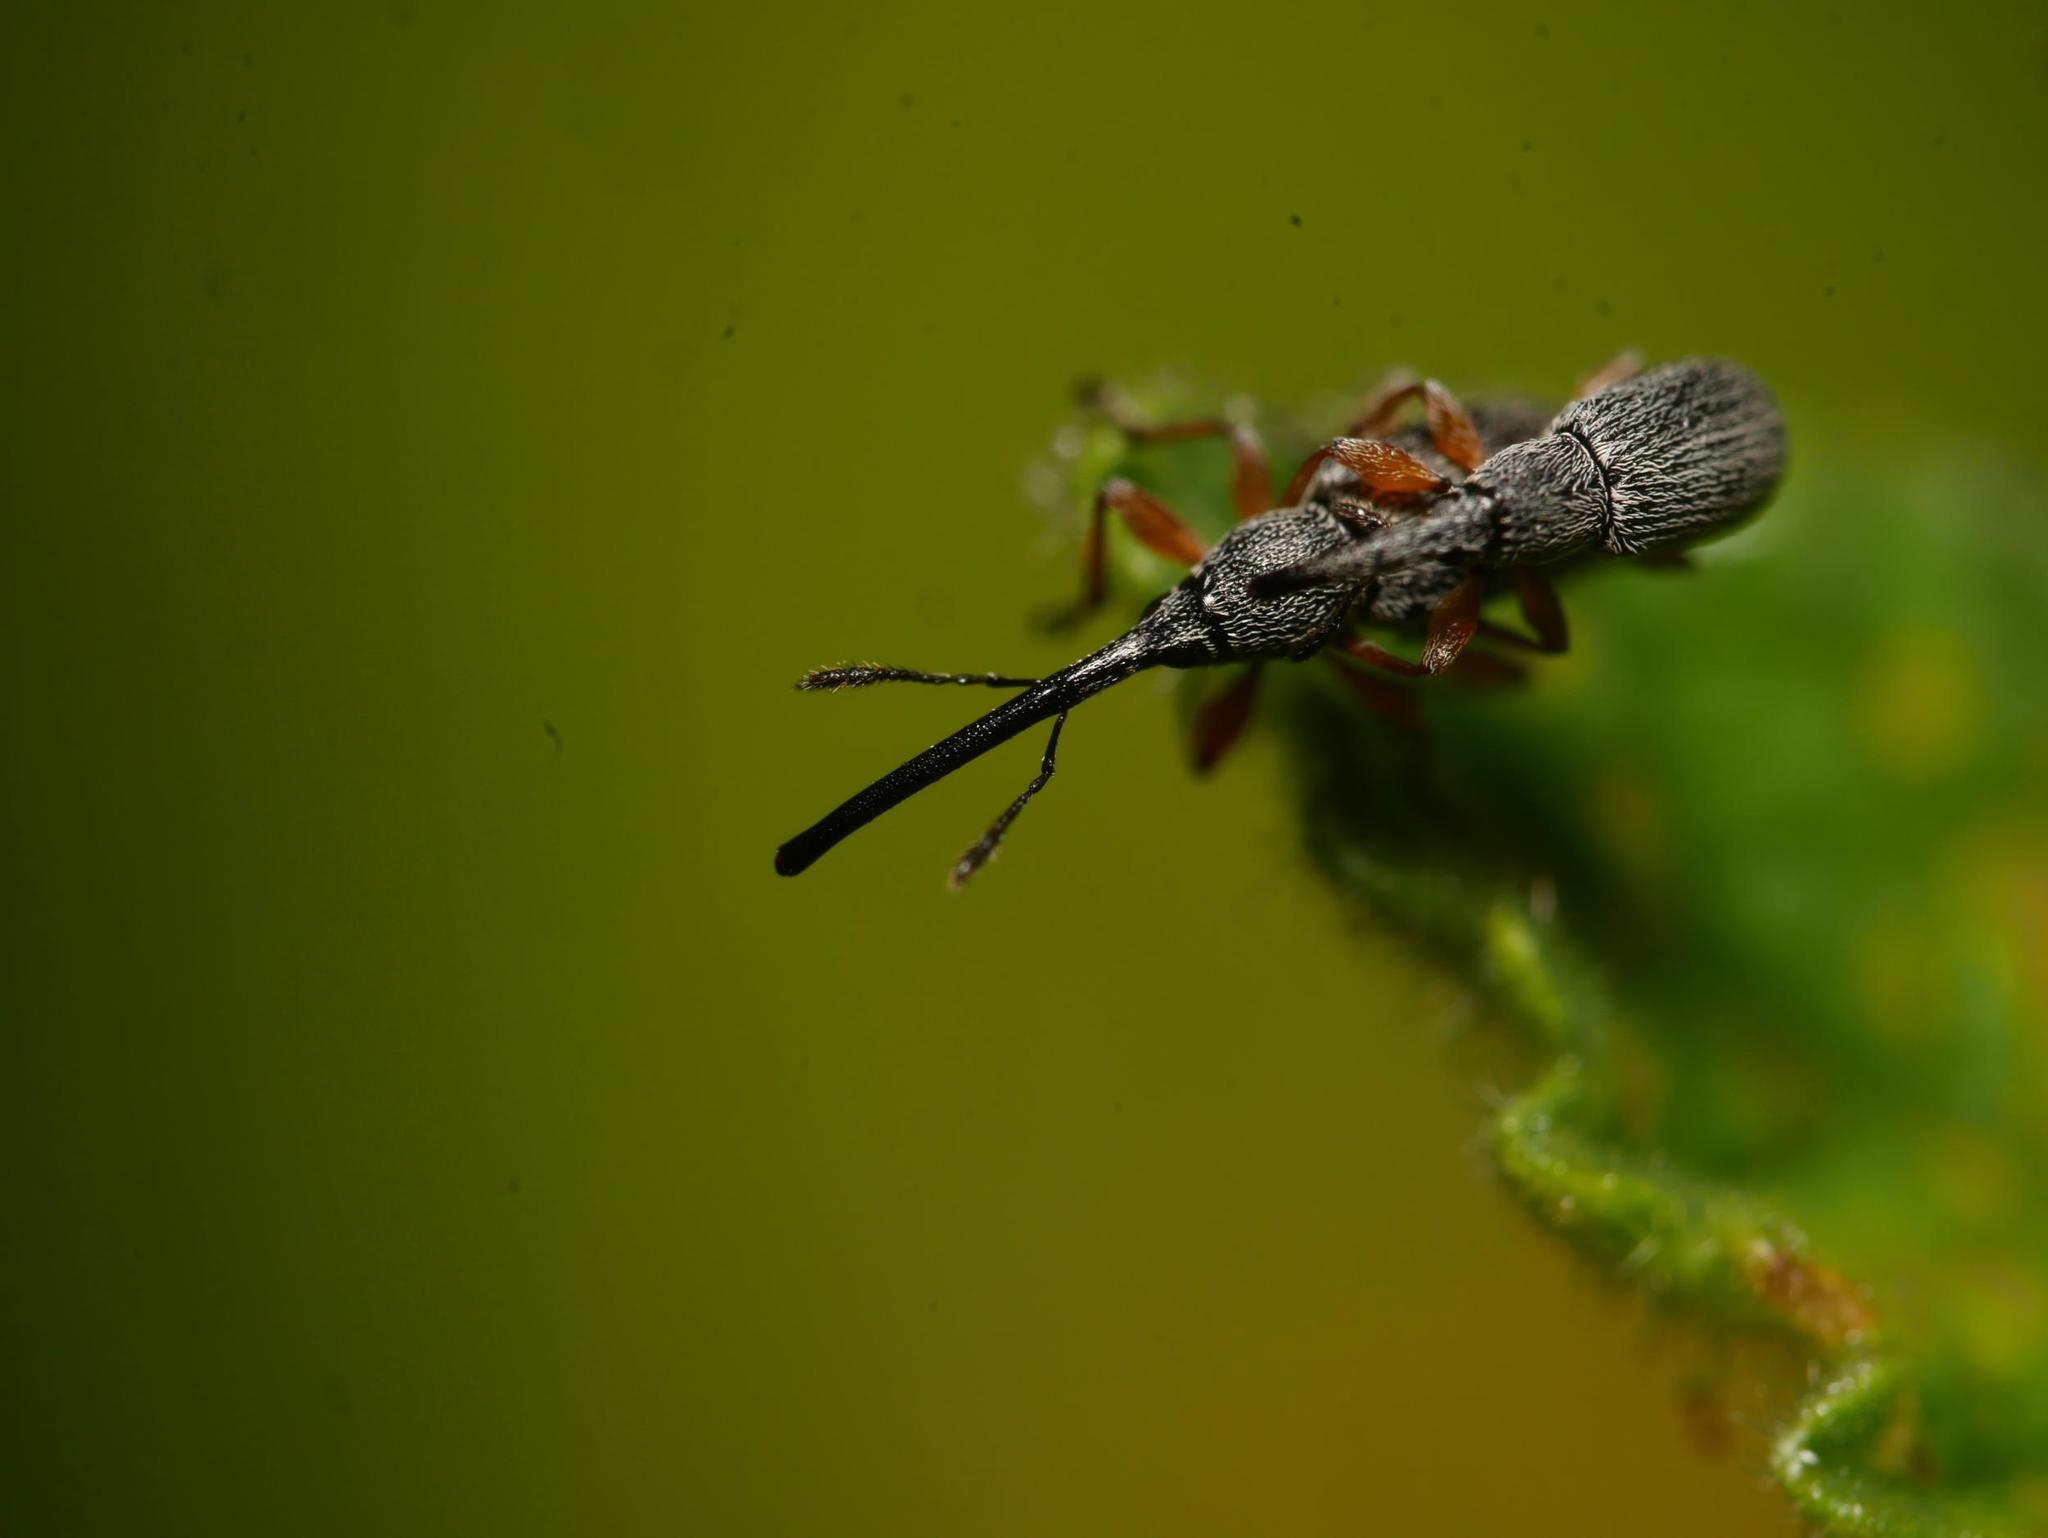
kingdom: Animalia
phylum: Arthropoda
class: Insecta
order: Coleoptera
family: Brentidae
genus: Rhopalapion
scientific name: Rhopalapion longirostre
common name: Hollyhock weevil
